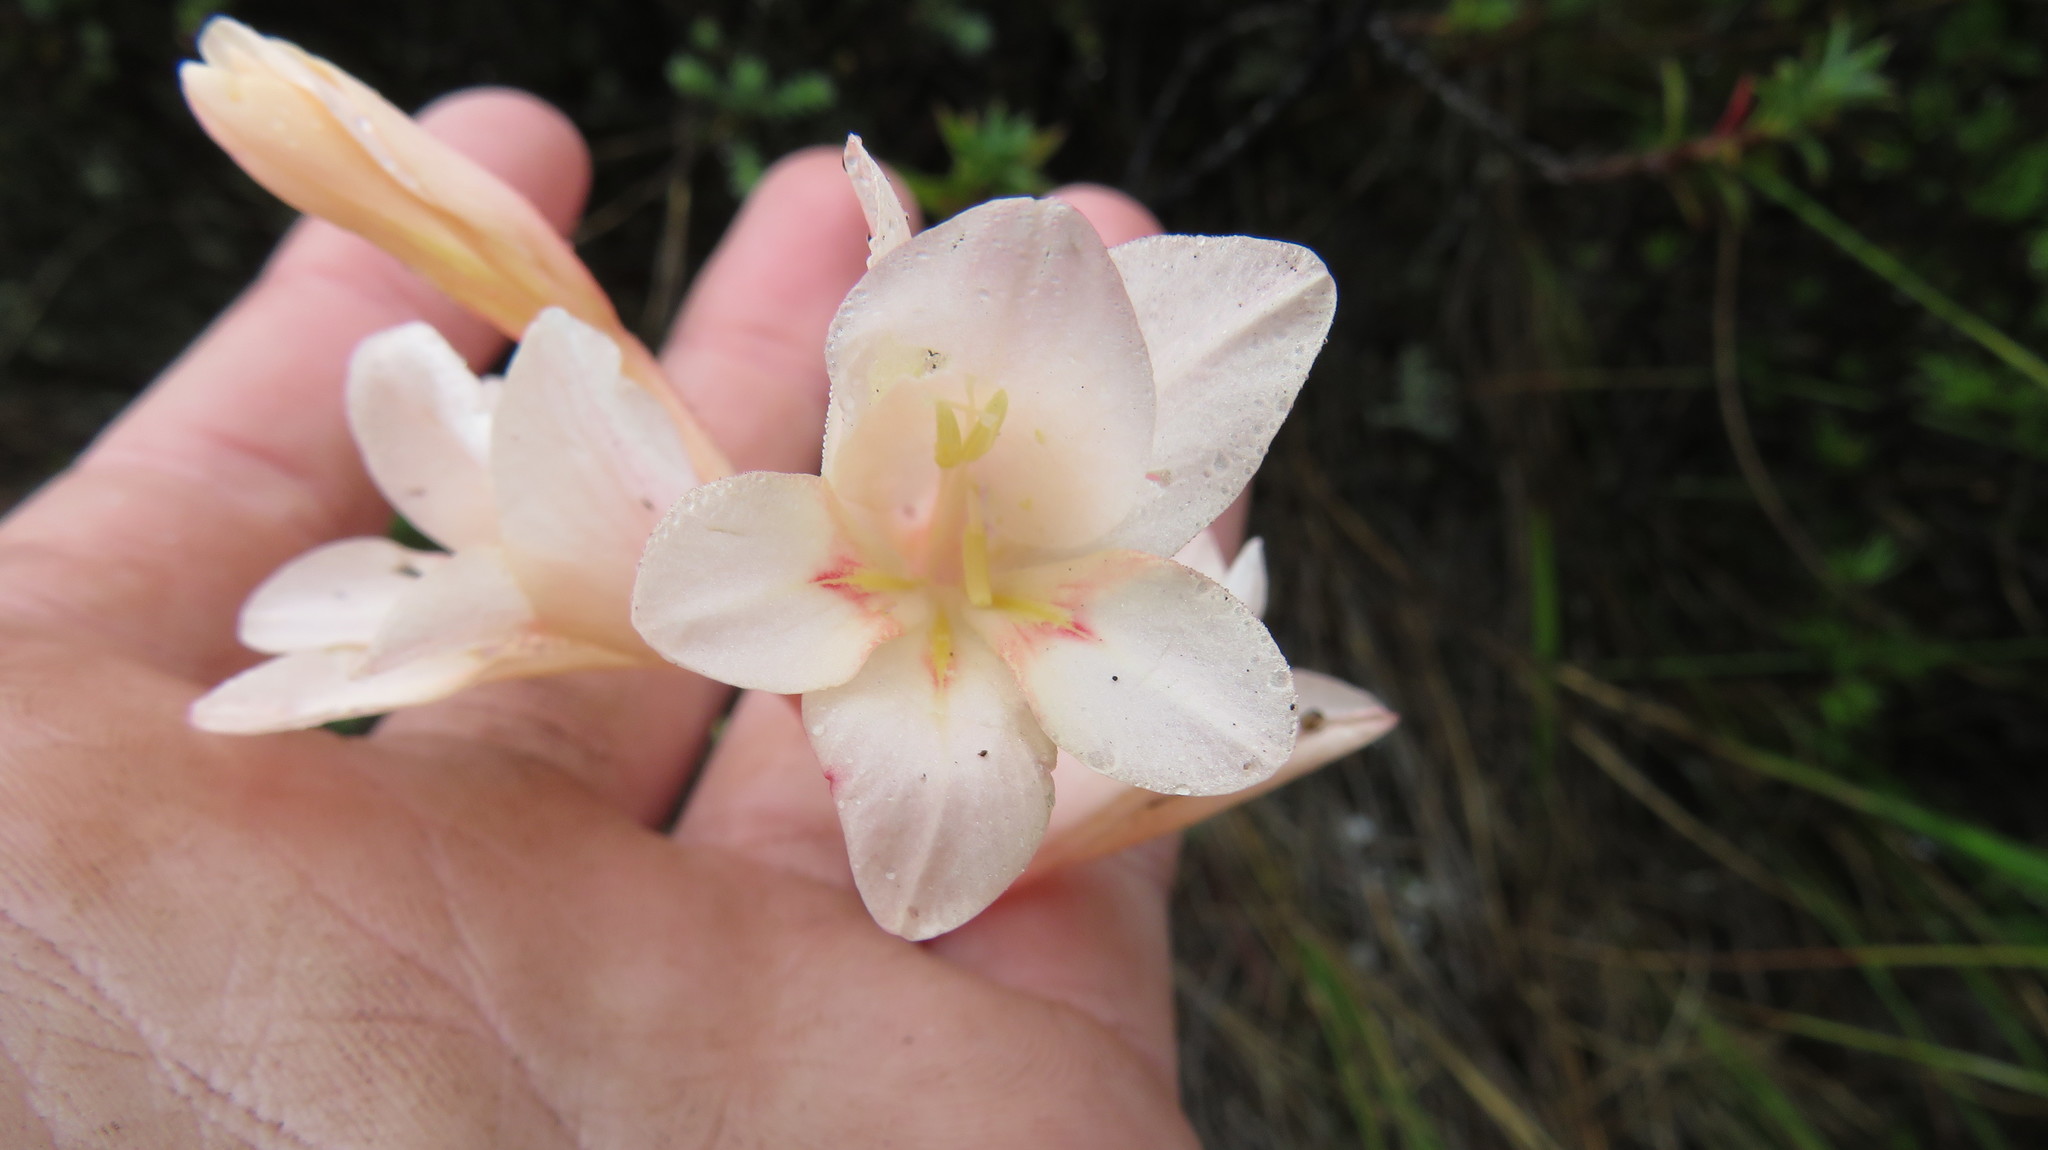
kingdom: Plantae
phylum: Tracheophyta
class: Liliopsida
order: Asparagales
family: Iridaceae
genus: Gladiolus
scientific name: Gladiolus monticola
